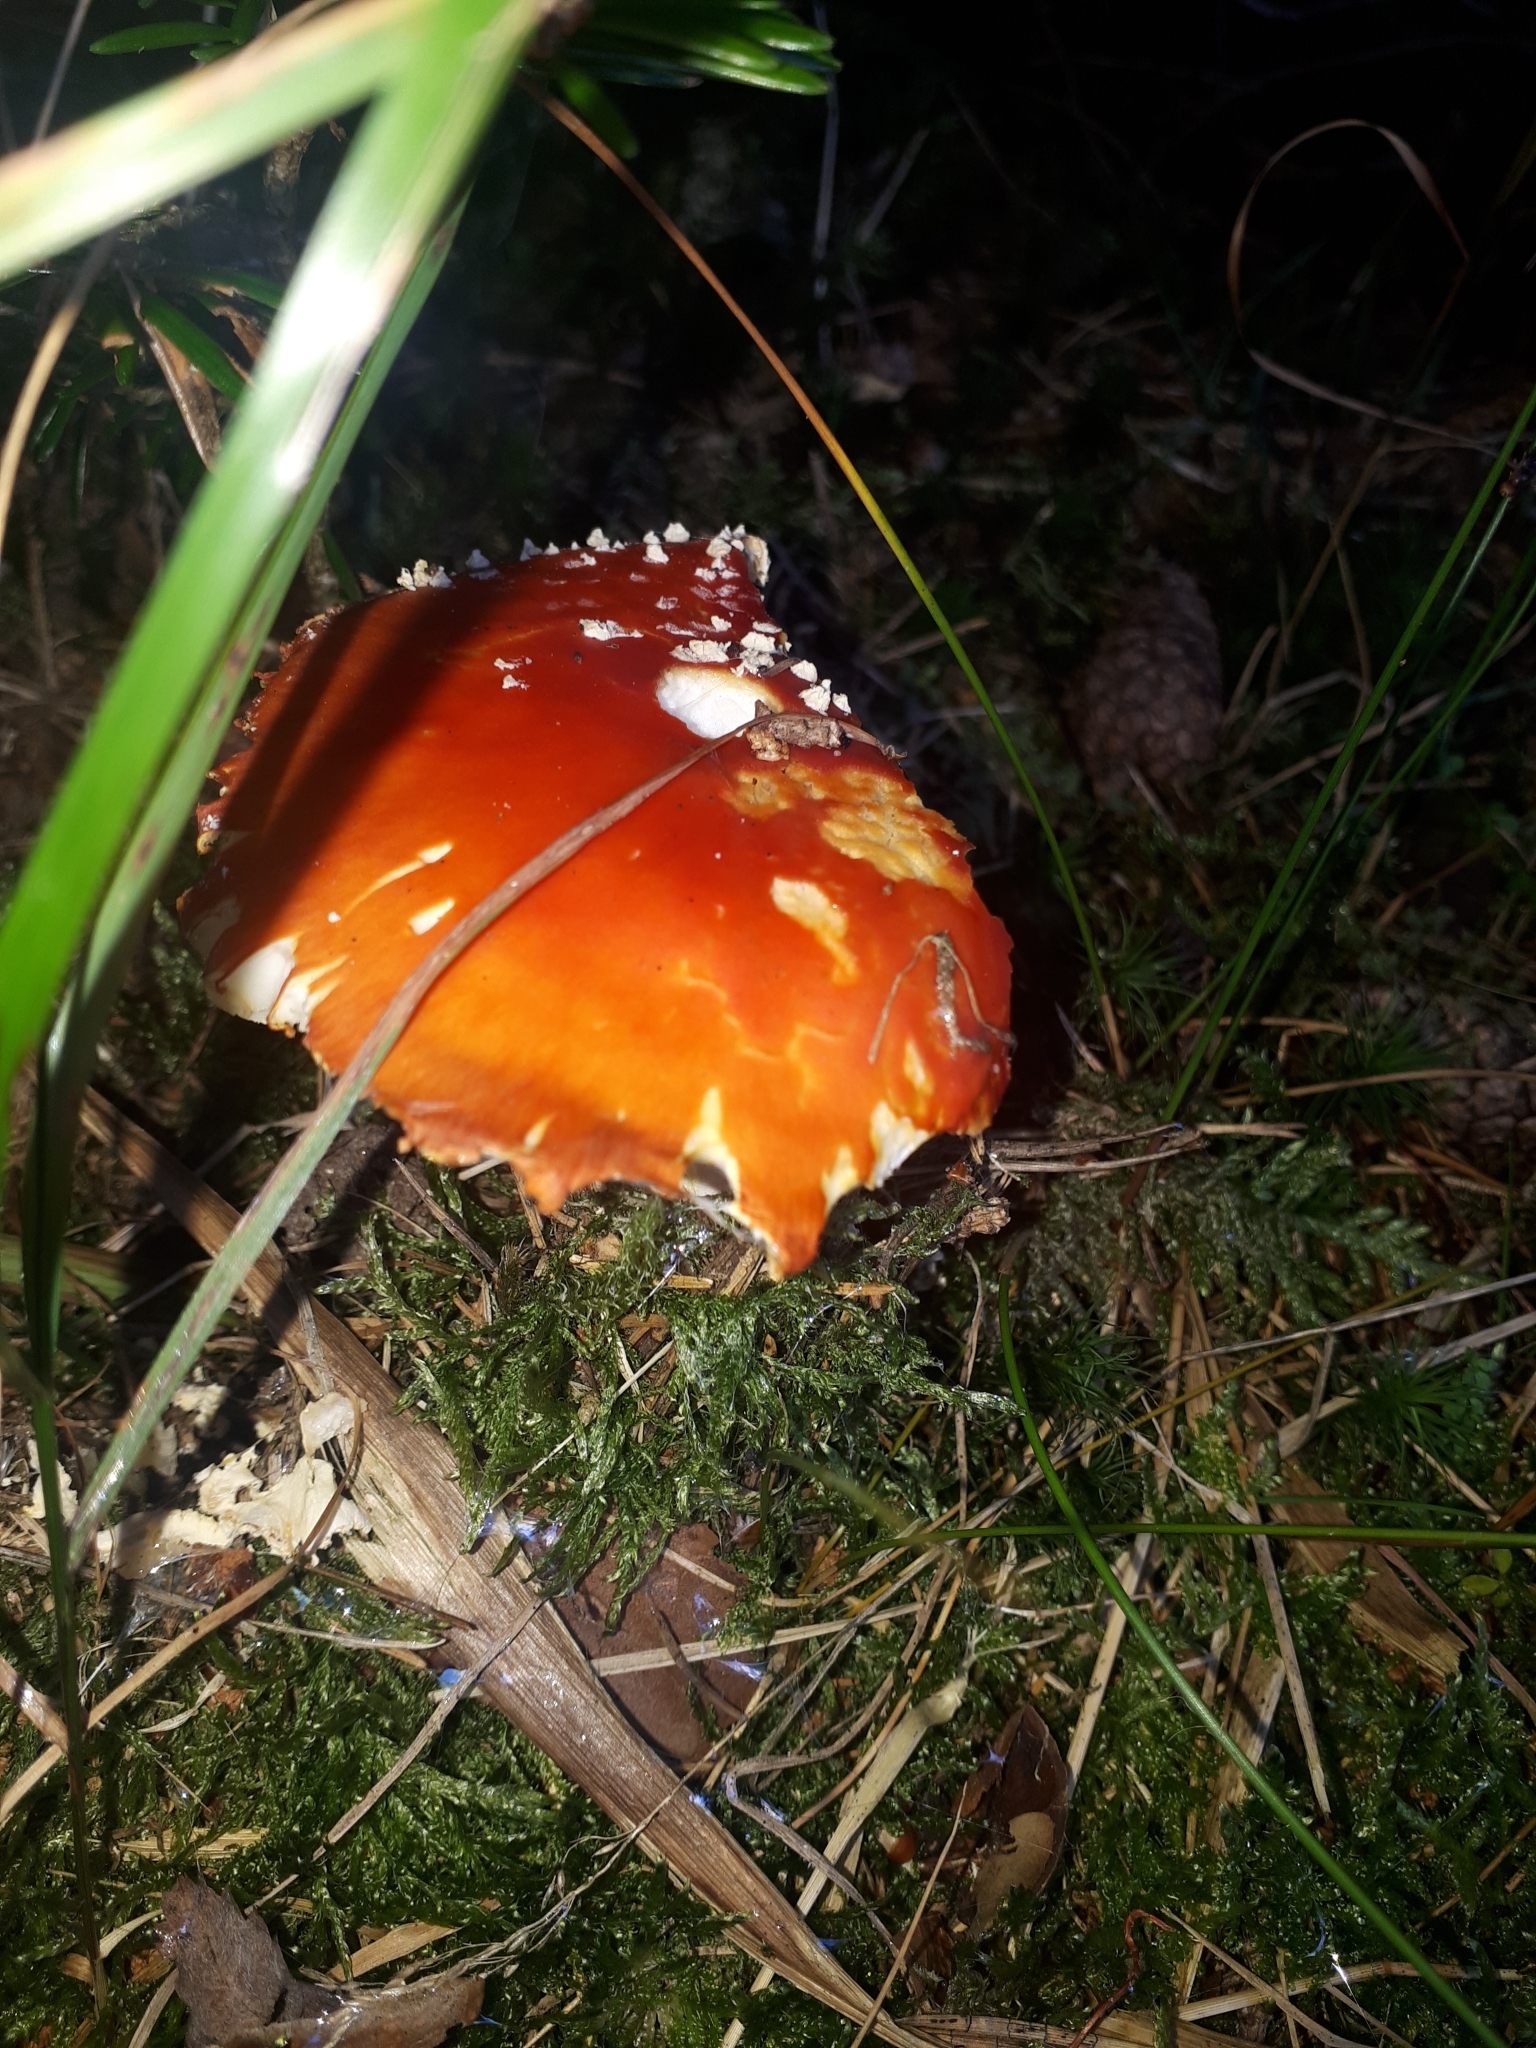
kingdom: Fungi
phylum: Basidiomycota
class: Agaricomycetes
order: Agaricales
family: Amanitaceae
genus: Amanita
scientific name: Amanita muscaria
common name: Fly agaric
